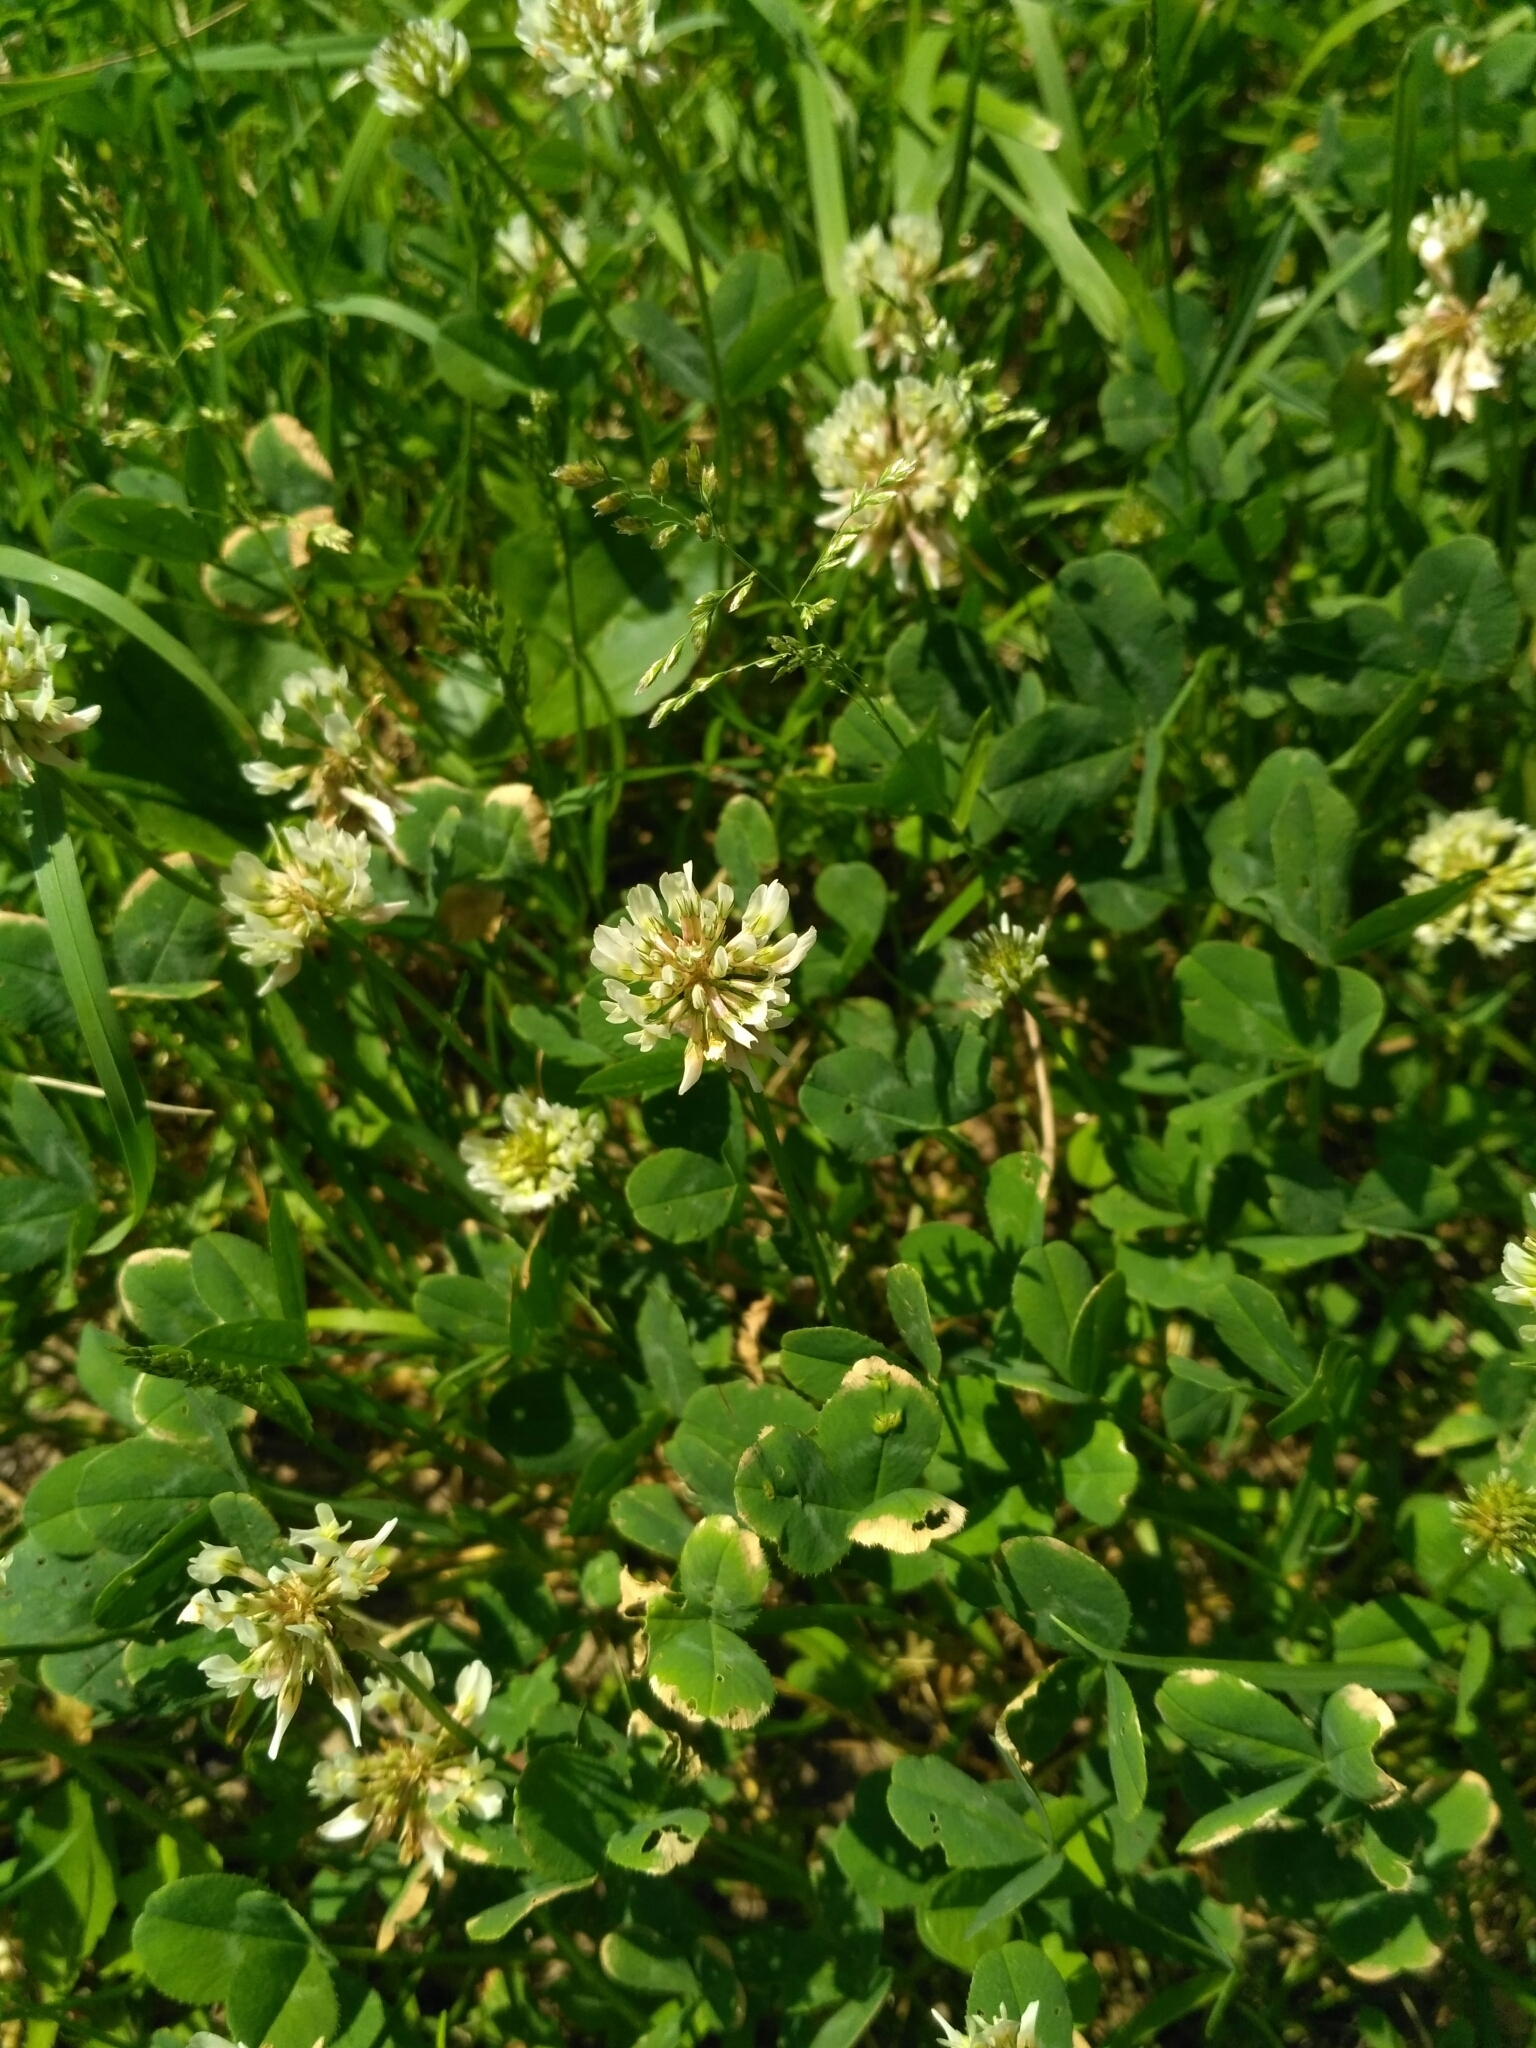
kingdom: Plantae
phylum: Tracheophyta
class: Magnoliopsida
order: Fabales
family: Fabaceae
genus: Trifolium
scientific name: Trifolium repens
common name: White clover
